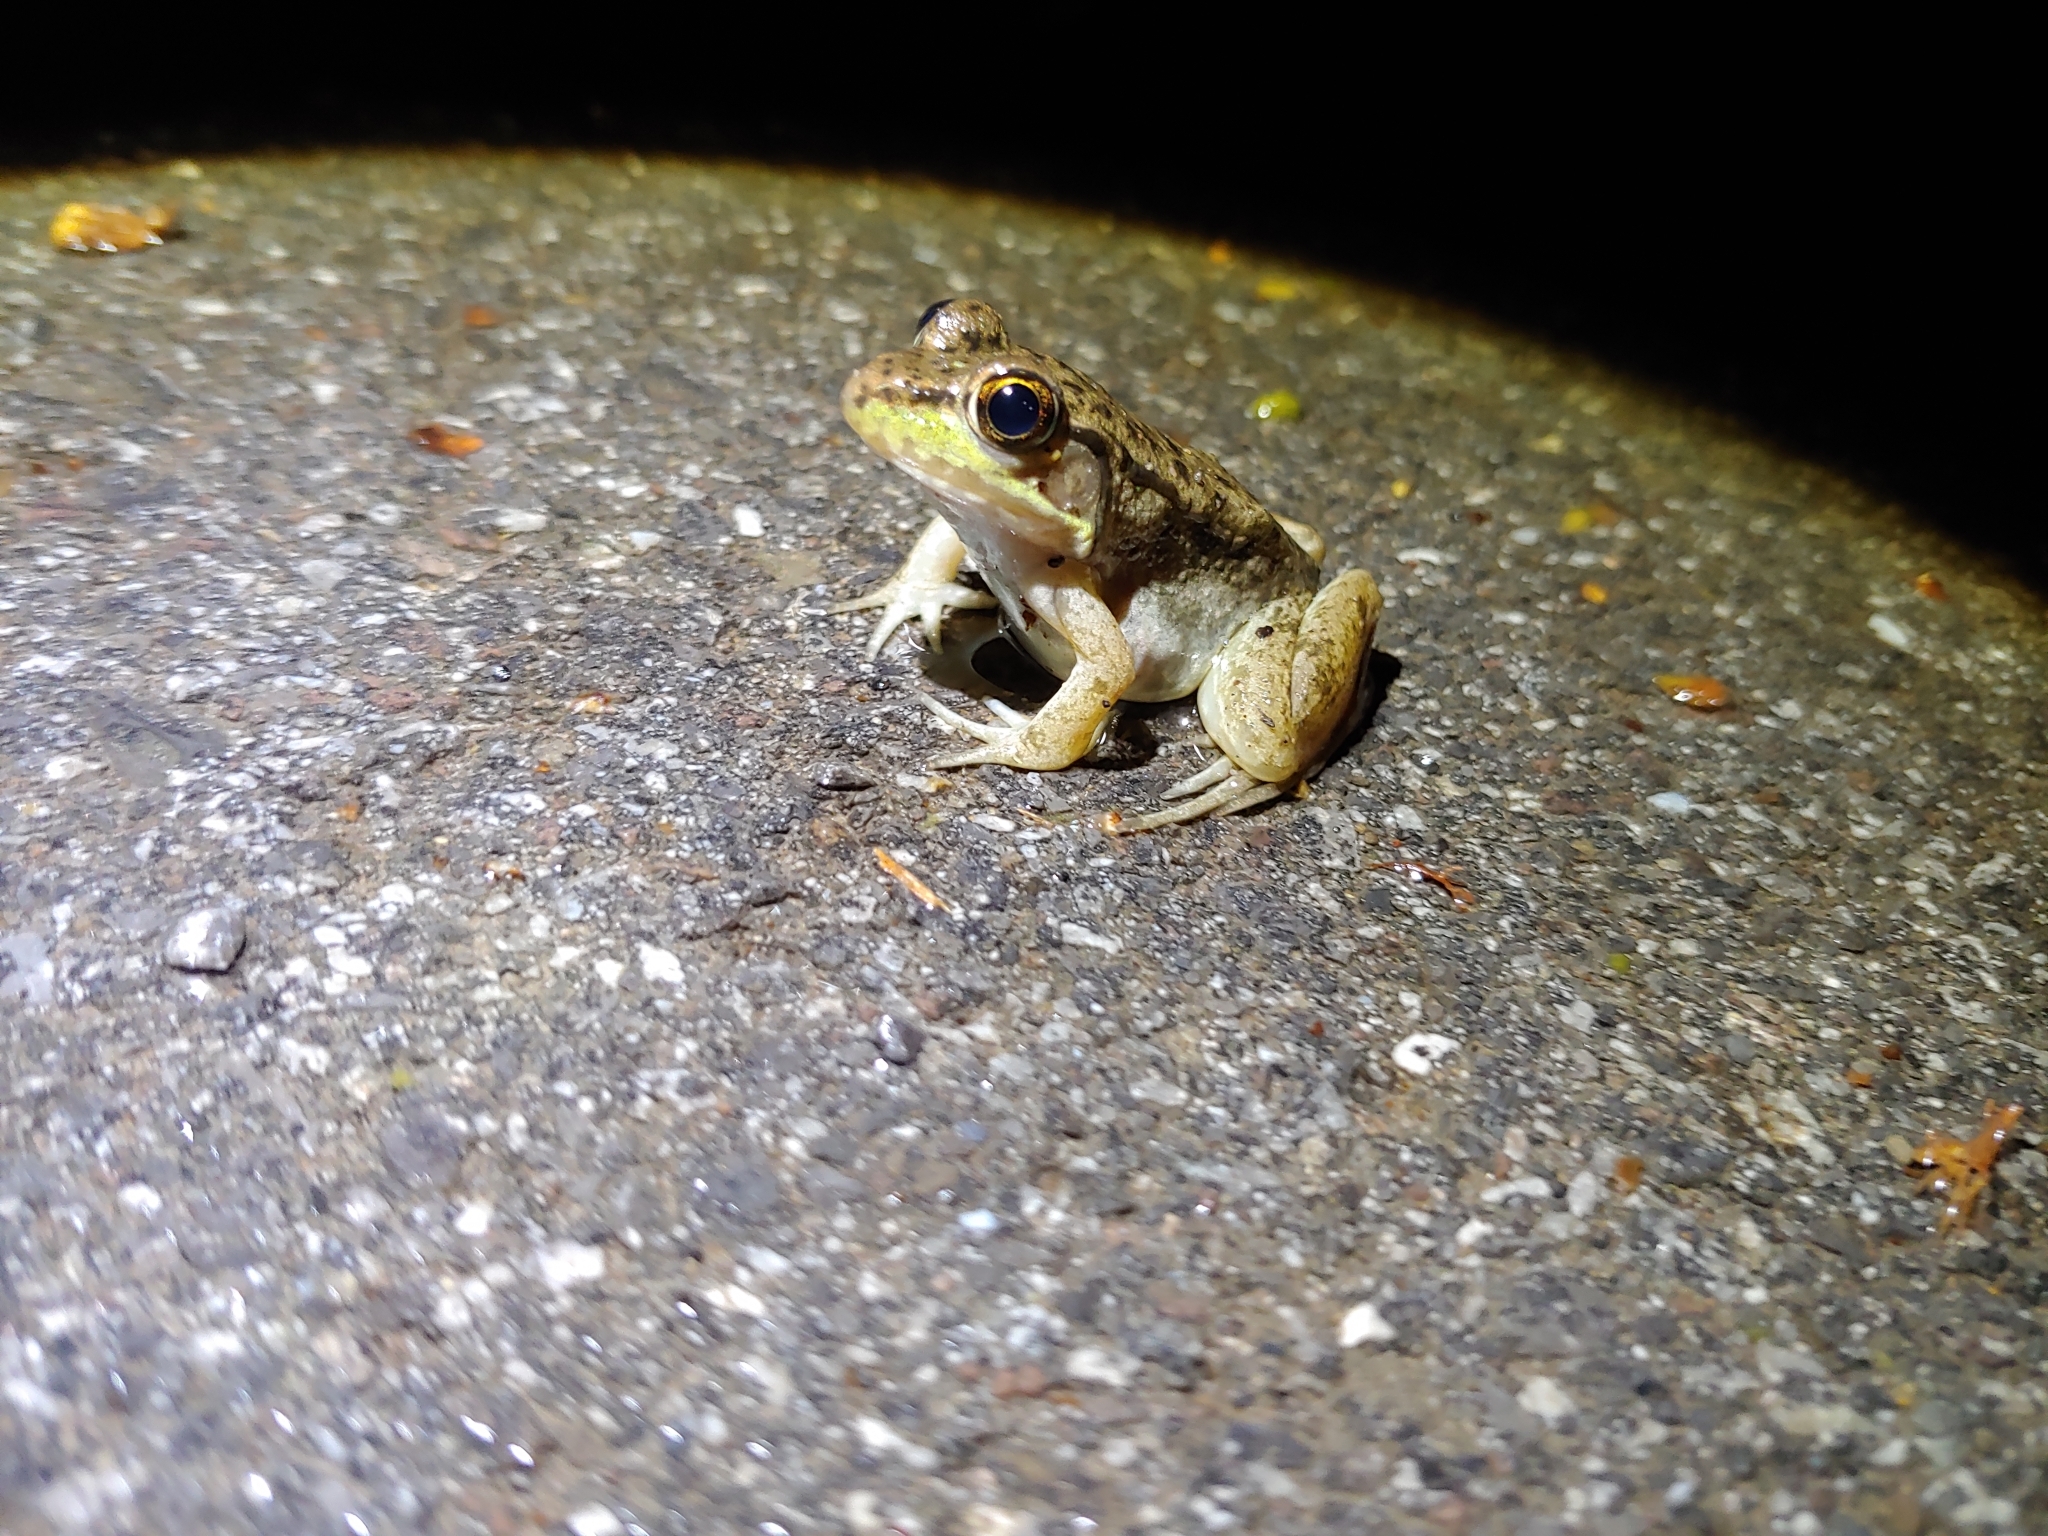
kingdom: Animalia
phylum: Chordata
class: Amphibia
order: Anura
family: Ranidae
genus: Lithobates
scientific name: Lithobates clamitans
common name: Green frog
